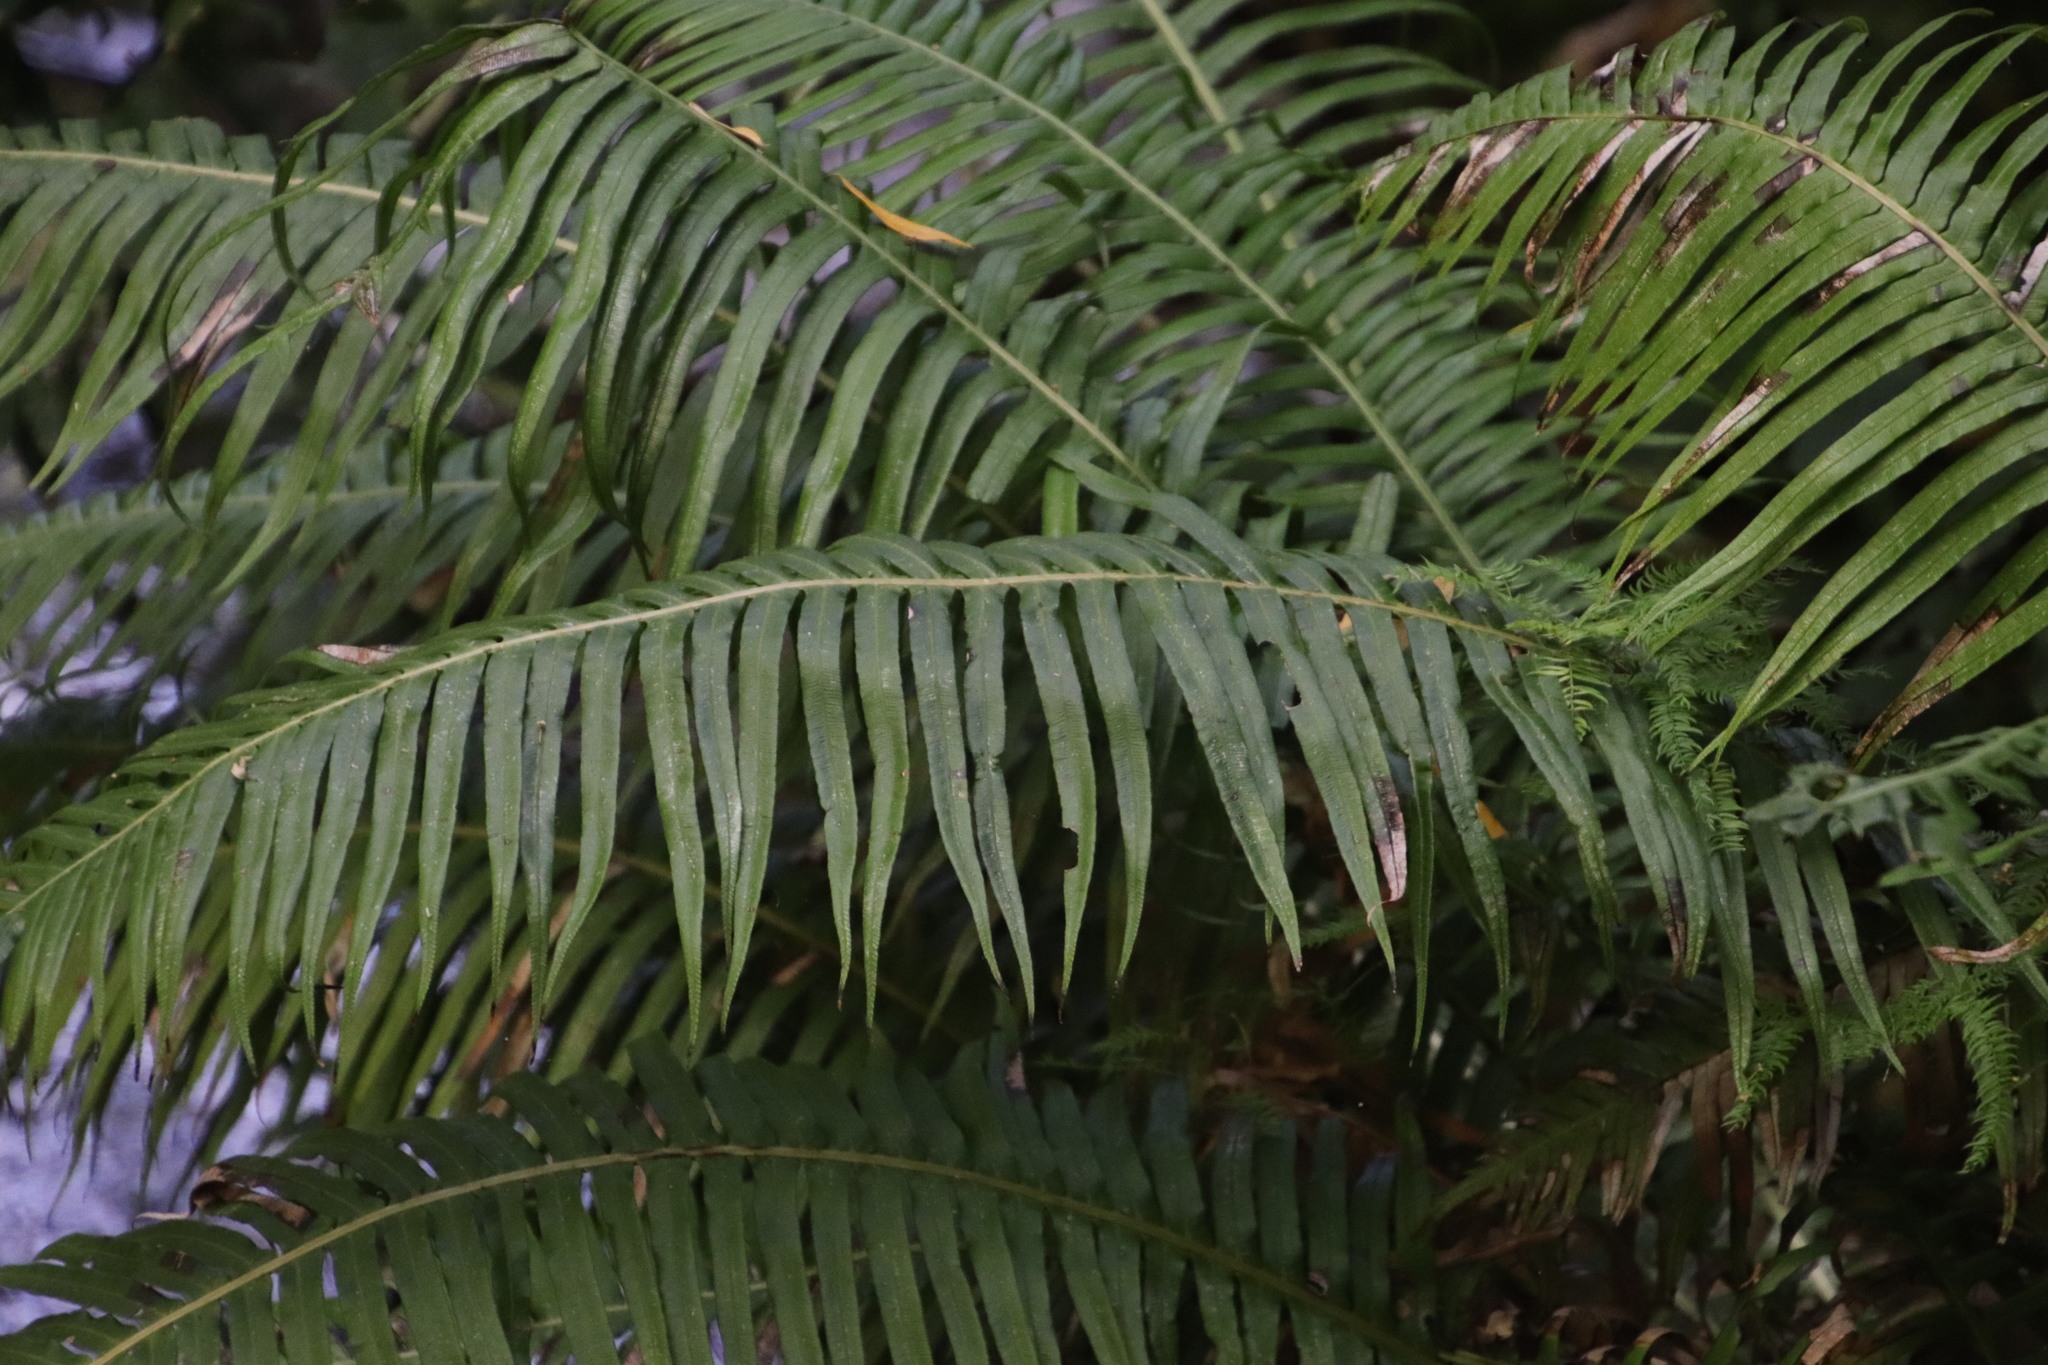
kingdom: Plantae
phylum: Tracheophyta
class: Polypodiopsida
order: Polypodiales
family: Blechnaceae
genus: Lomaridium
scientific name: Lomaridium attenuatum
